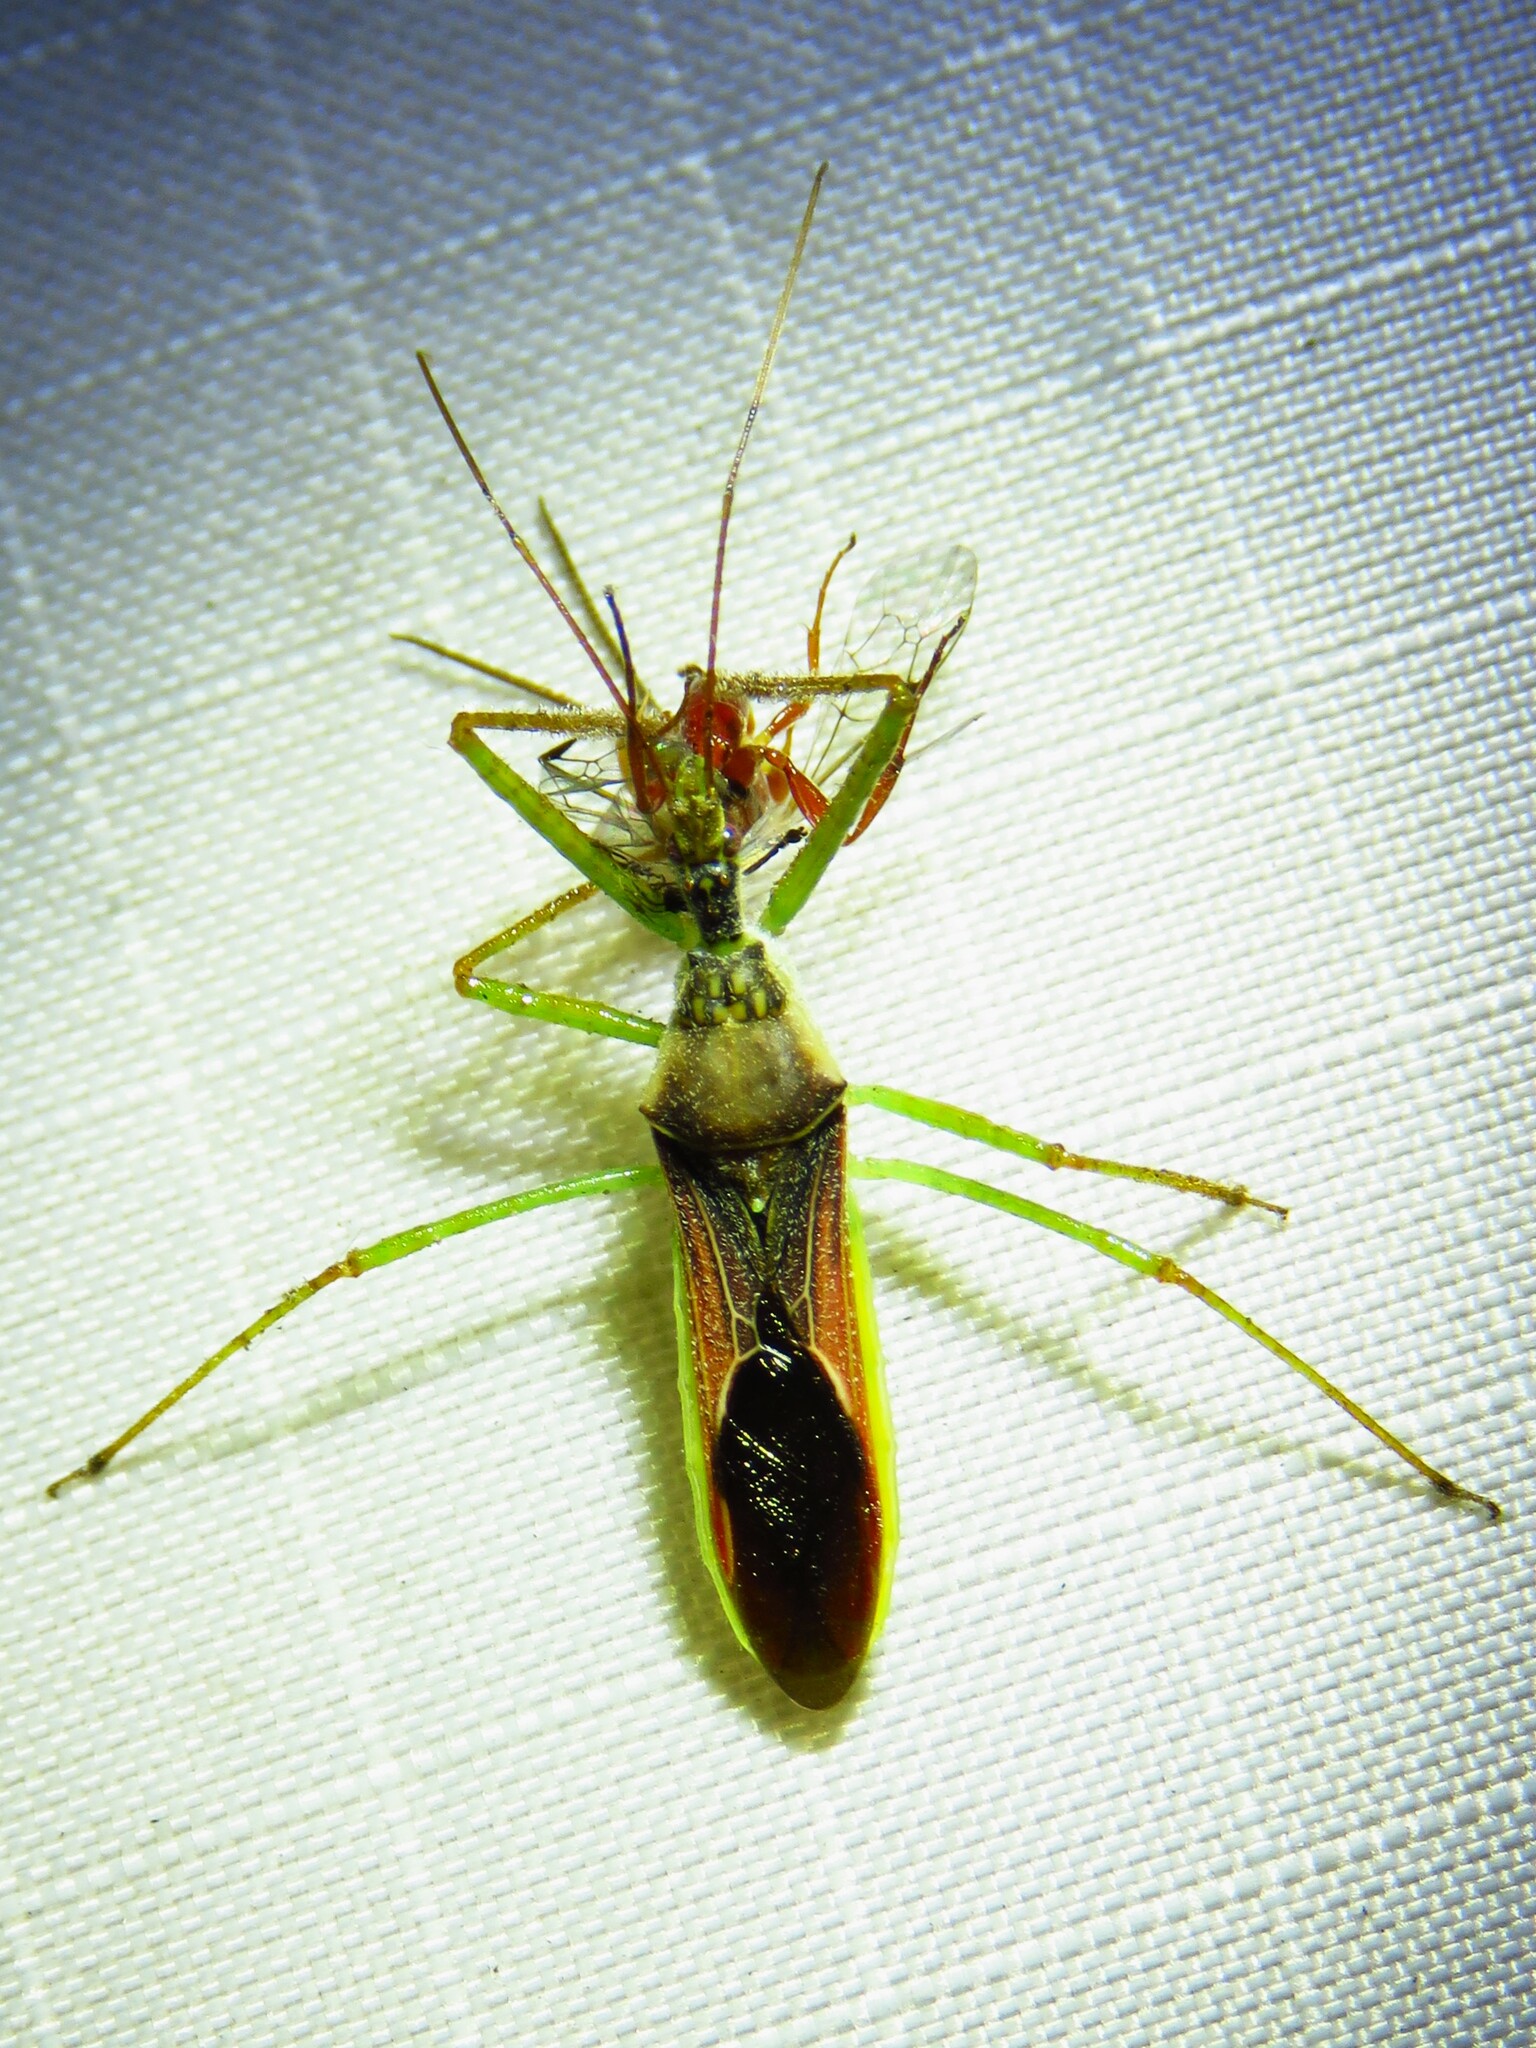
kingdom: Animalia
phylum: Arthropoda
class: Insecta
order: Hemiptera
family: Reduviidae
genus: Zelus
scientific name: Zelus renardii
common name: Assassin bug
